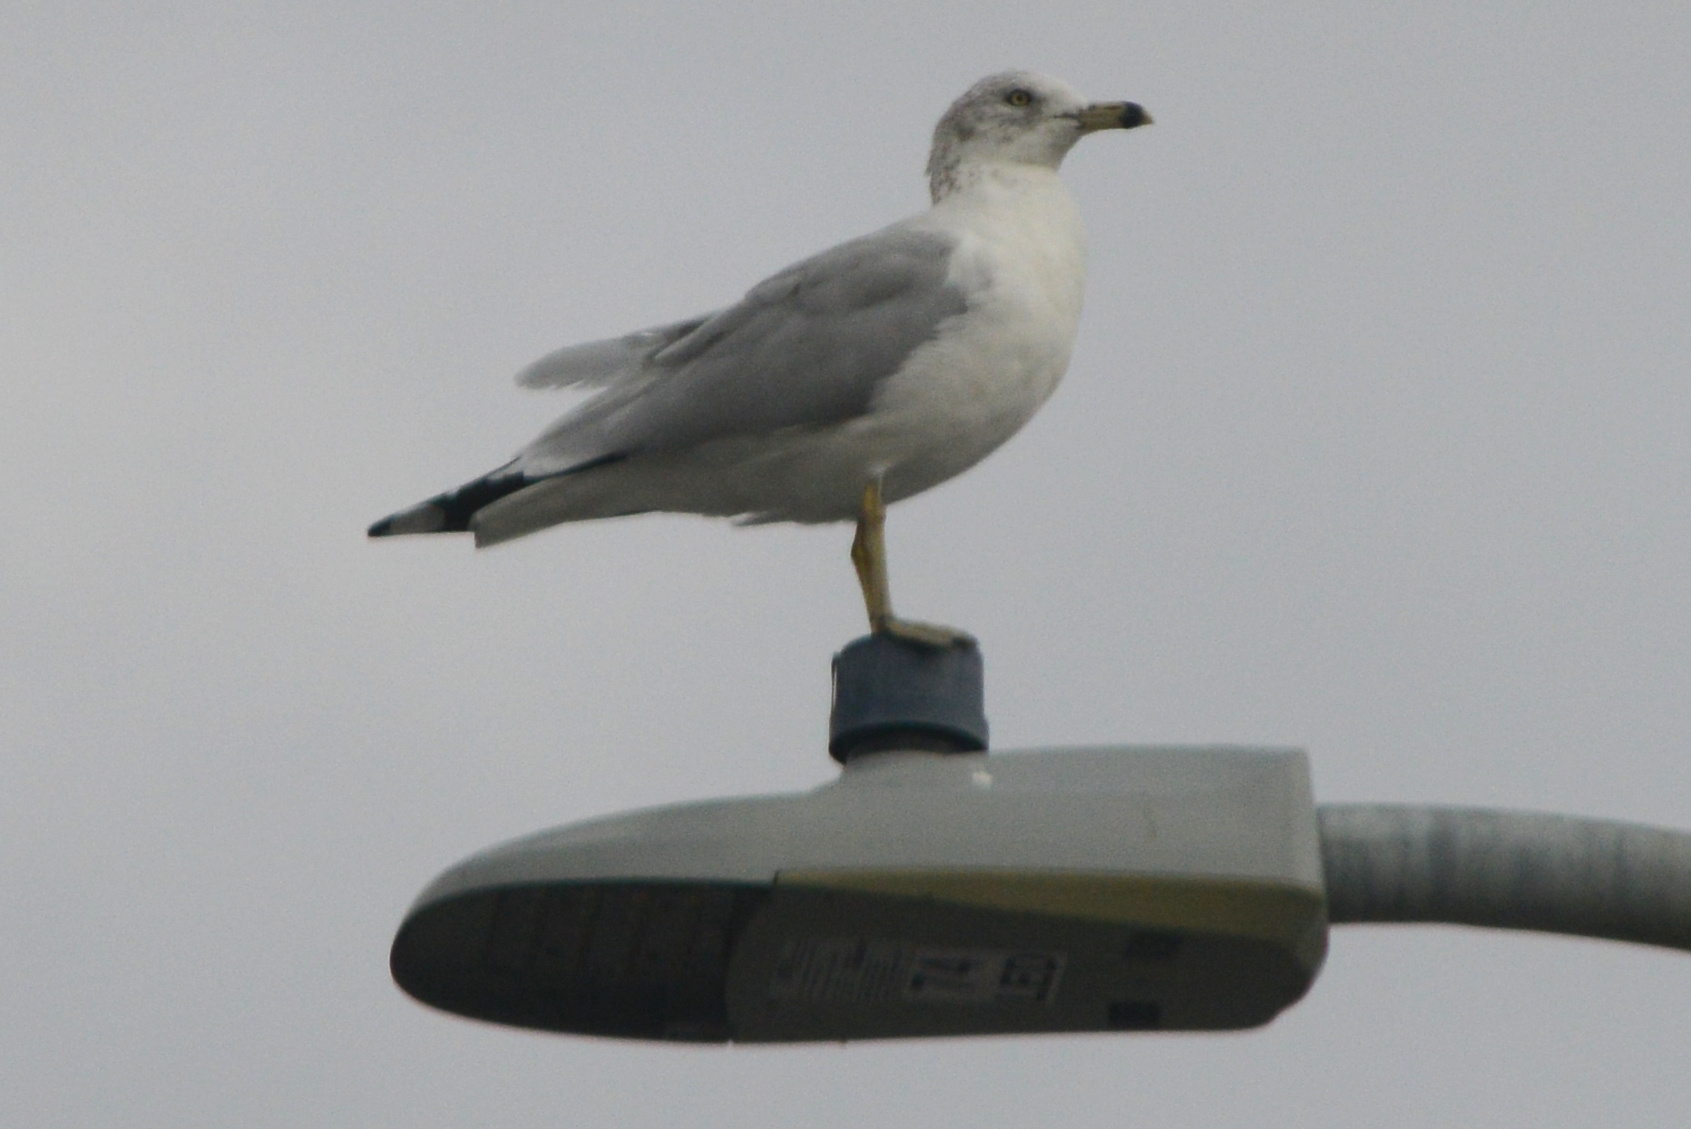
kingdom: Animalia
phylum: Chordata
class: Aves
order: Charadriiformes
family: Laridae
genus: Larus
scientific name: Larus delawarensis
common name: Ring-billed gull
